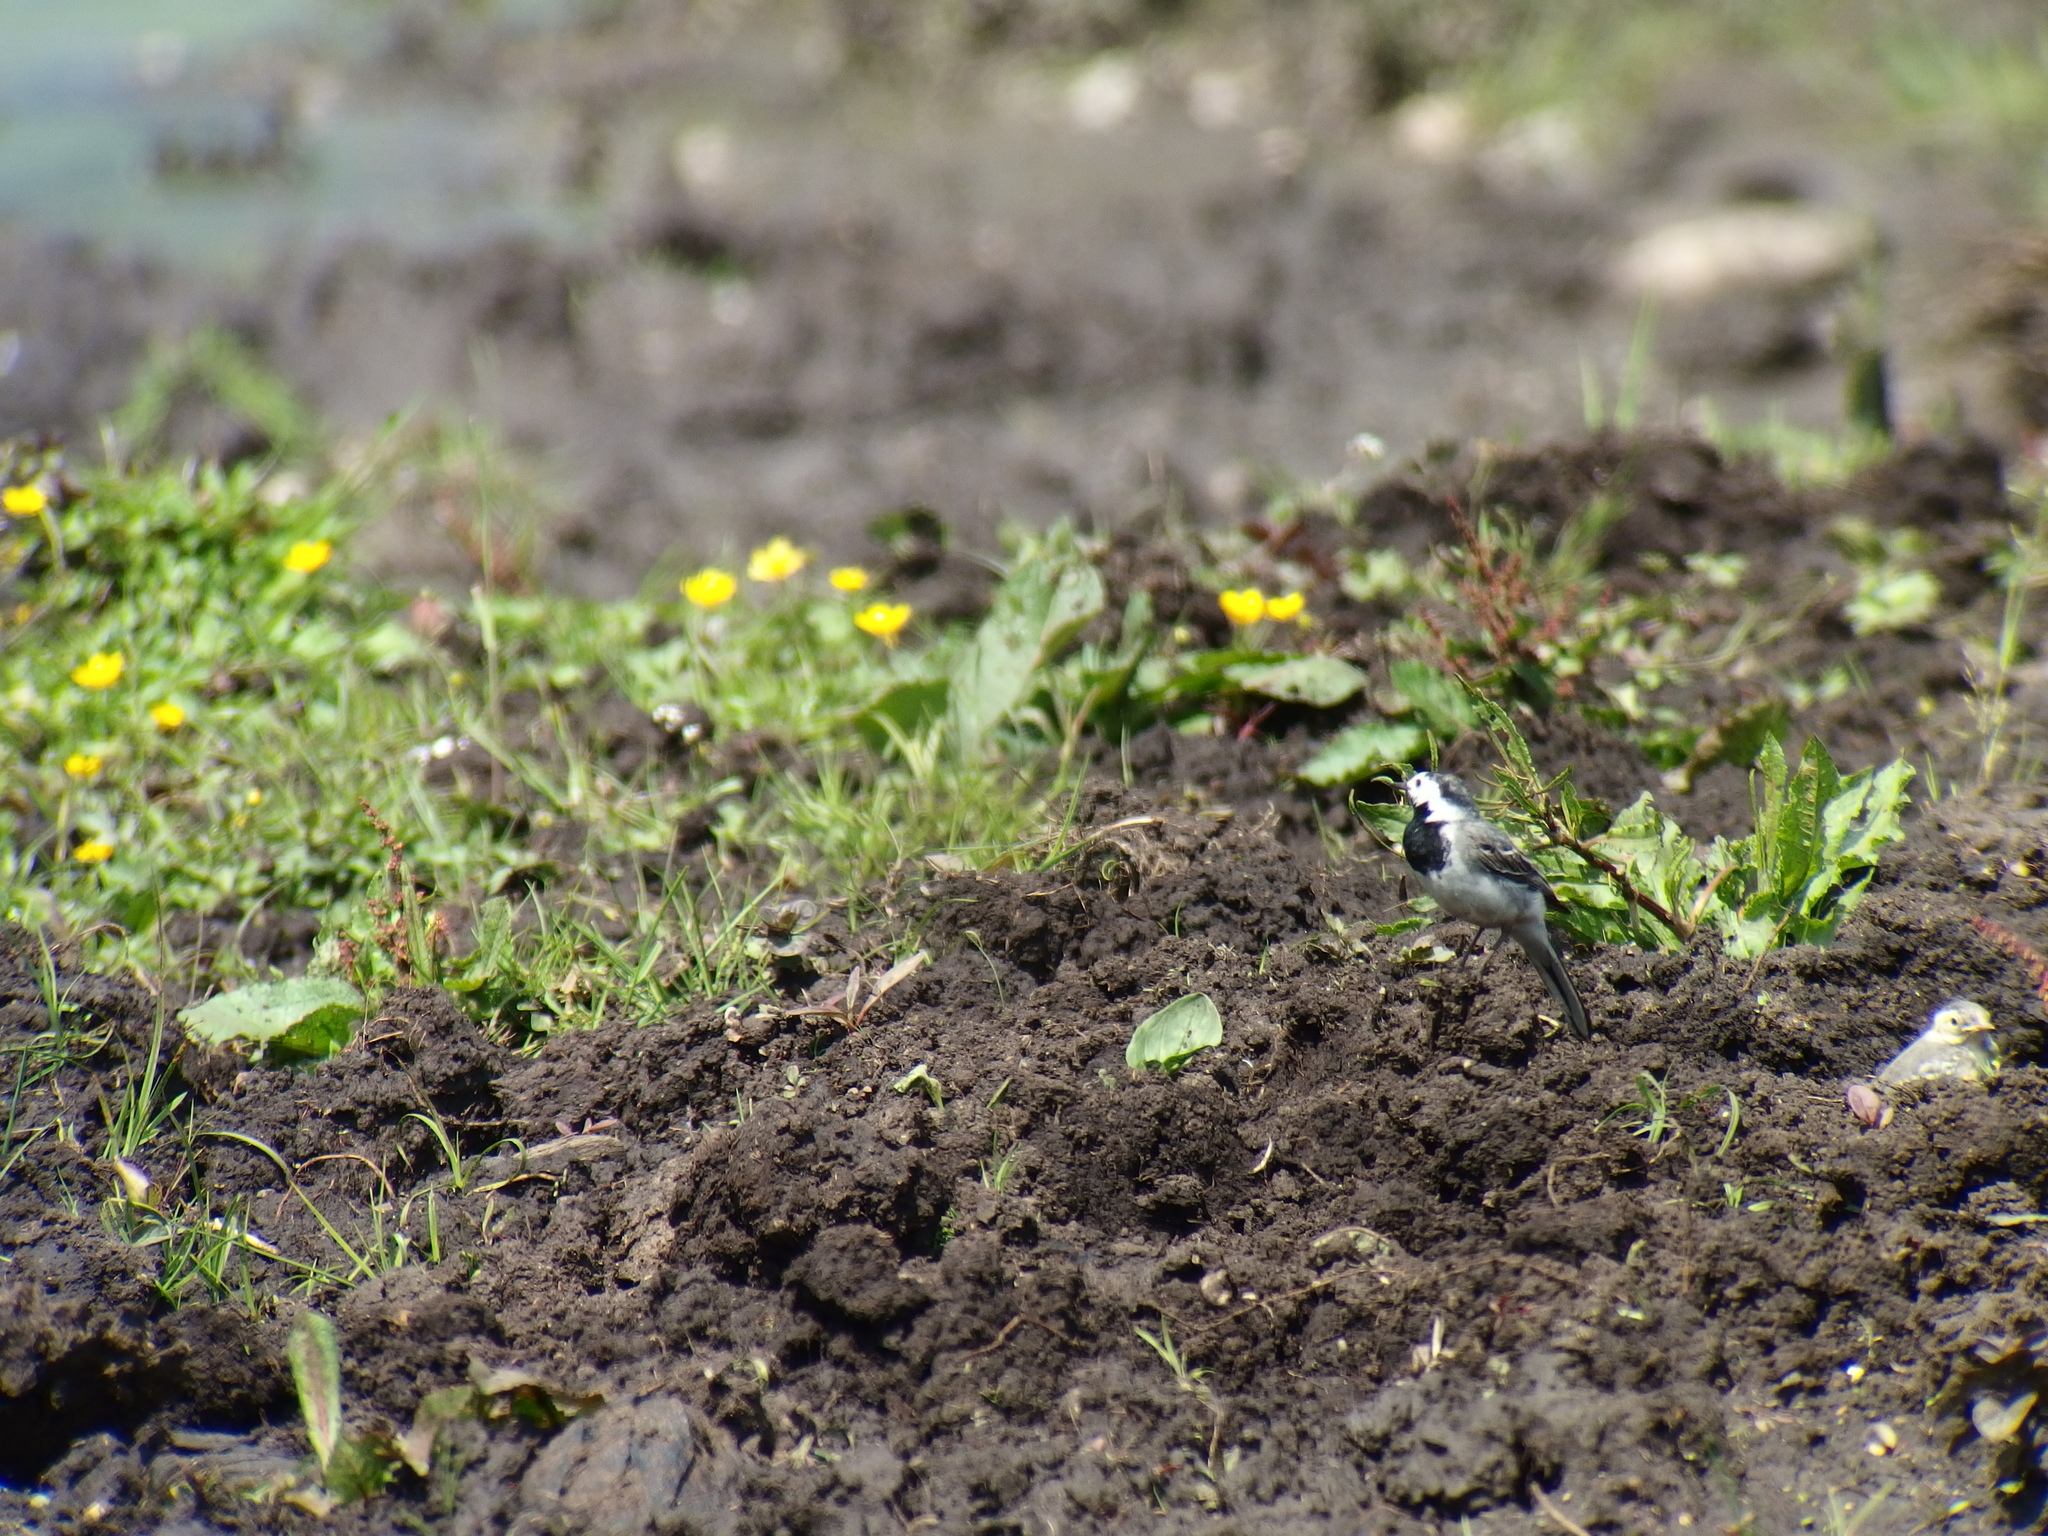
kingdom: Animalia
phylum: Chordata
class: Aves
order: Passeriformes
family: Motacillidae
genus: Motacilla
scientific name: Motacilla alba
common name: White wagtail
